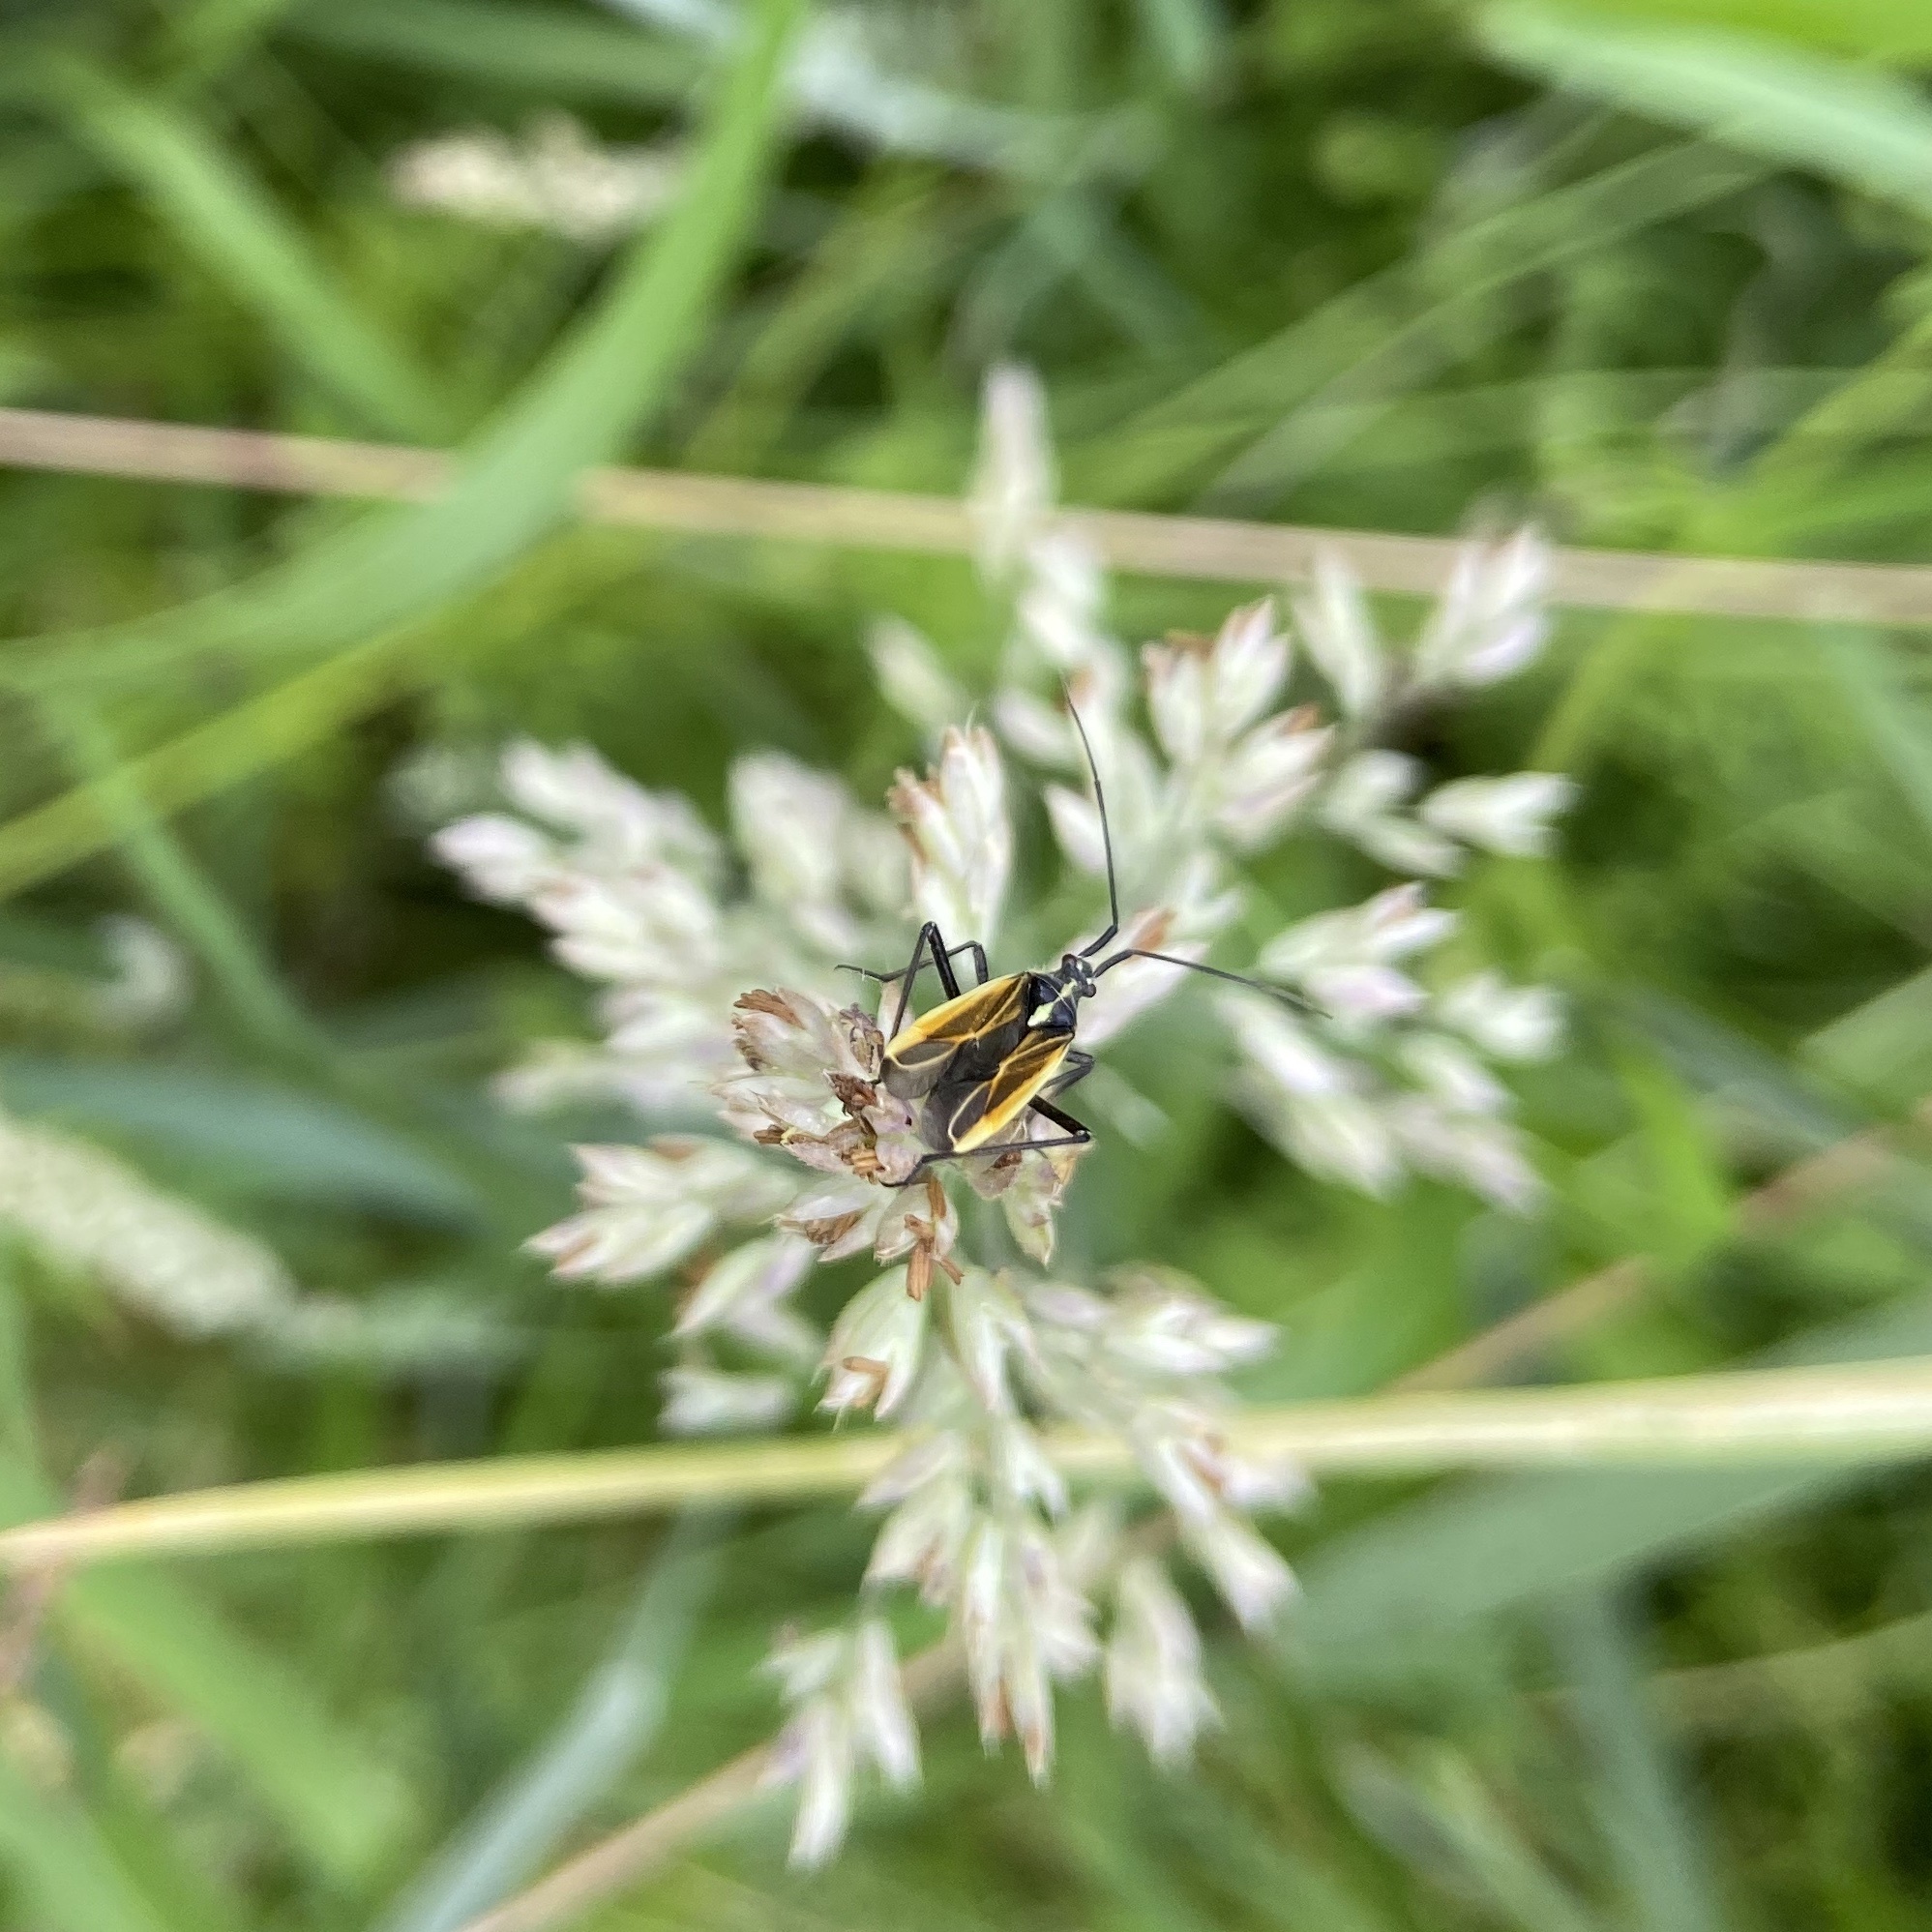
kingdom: Animalia
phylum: Arthropoda
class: Insecta
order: Hemiptera
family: Miridae
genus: Leptopterna
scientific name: Leptopterna dolabrata
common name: Meadow plant bug
